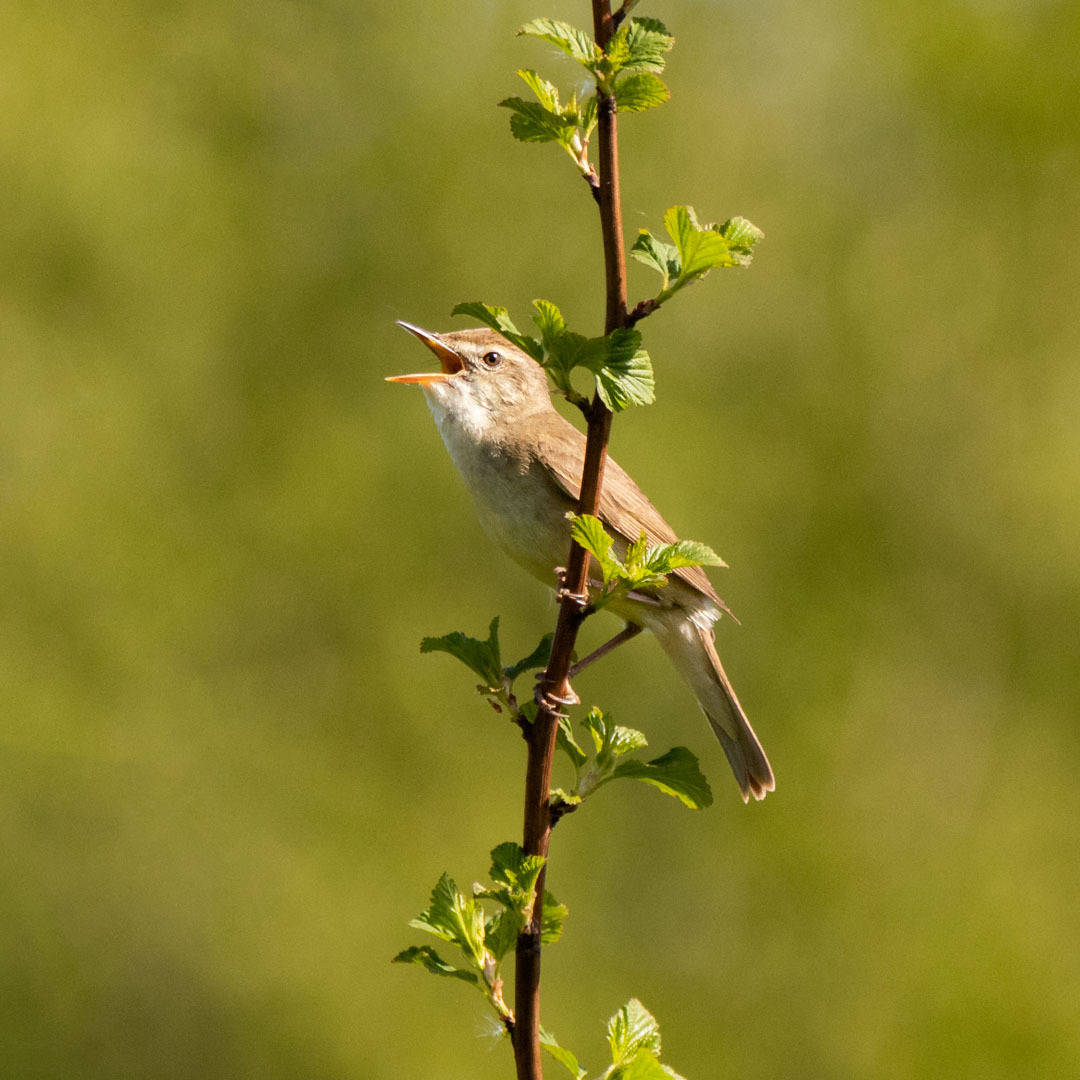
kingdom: Animalia
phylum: Chordata
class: Aves
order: Passeriformes
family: Acrocephalidae
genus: Acrocephalus
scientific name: Acrocephalus dumetorum
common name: Blyth's reed warbler
